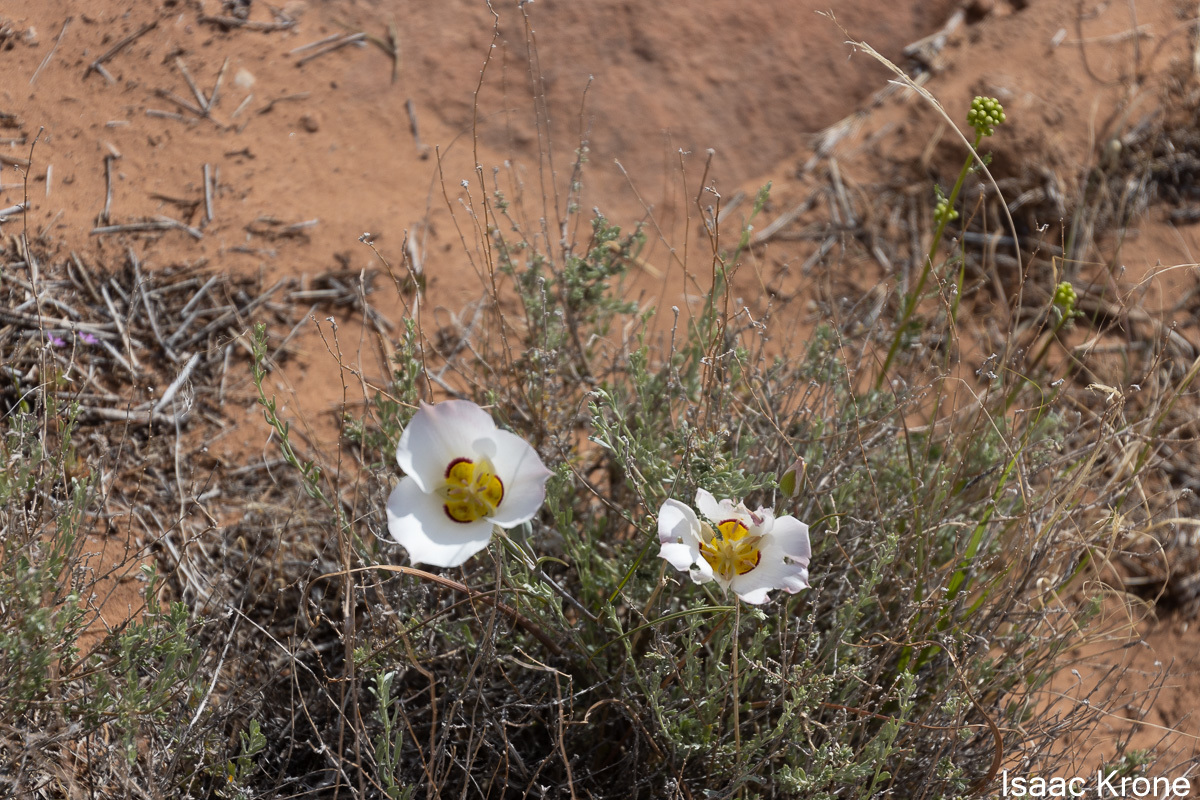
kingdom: Plantae
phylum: Tracheophyta
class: Liliopsida
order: Liliales
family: Liliaceae
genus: Calochortus
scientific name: Calochortus nuttallii
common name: Sego-lily
